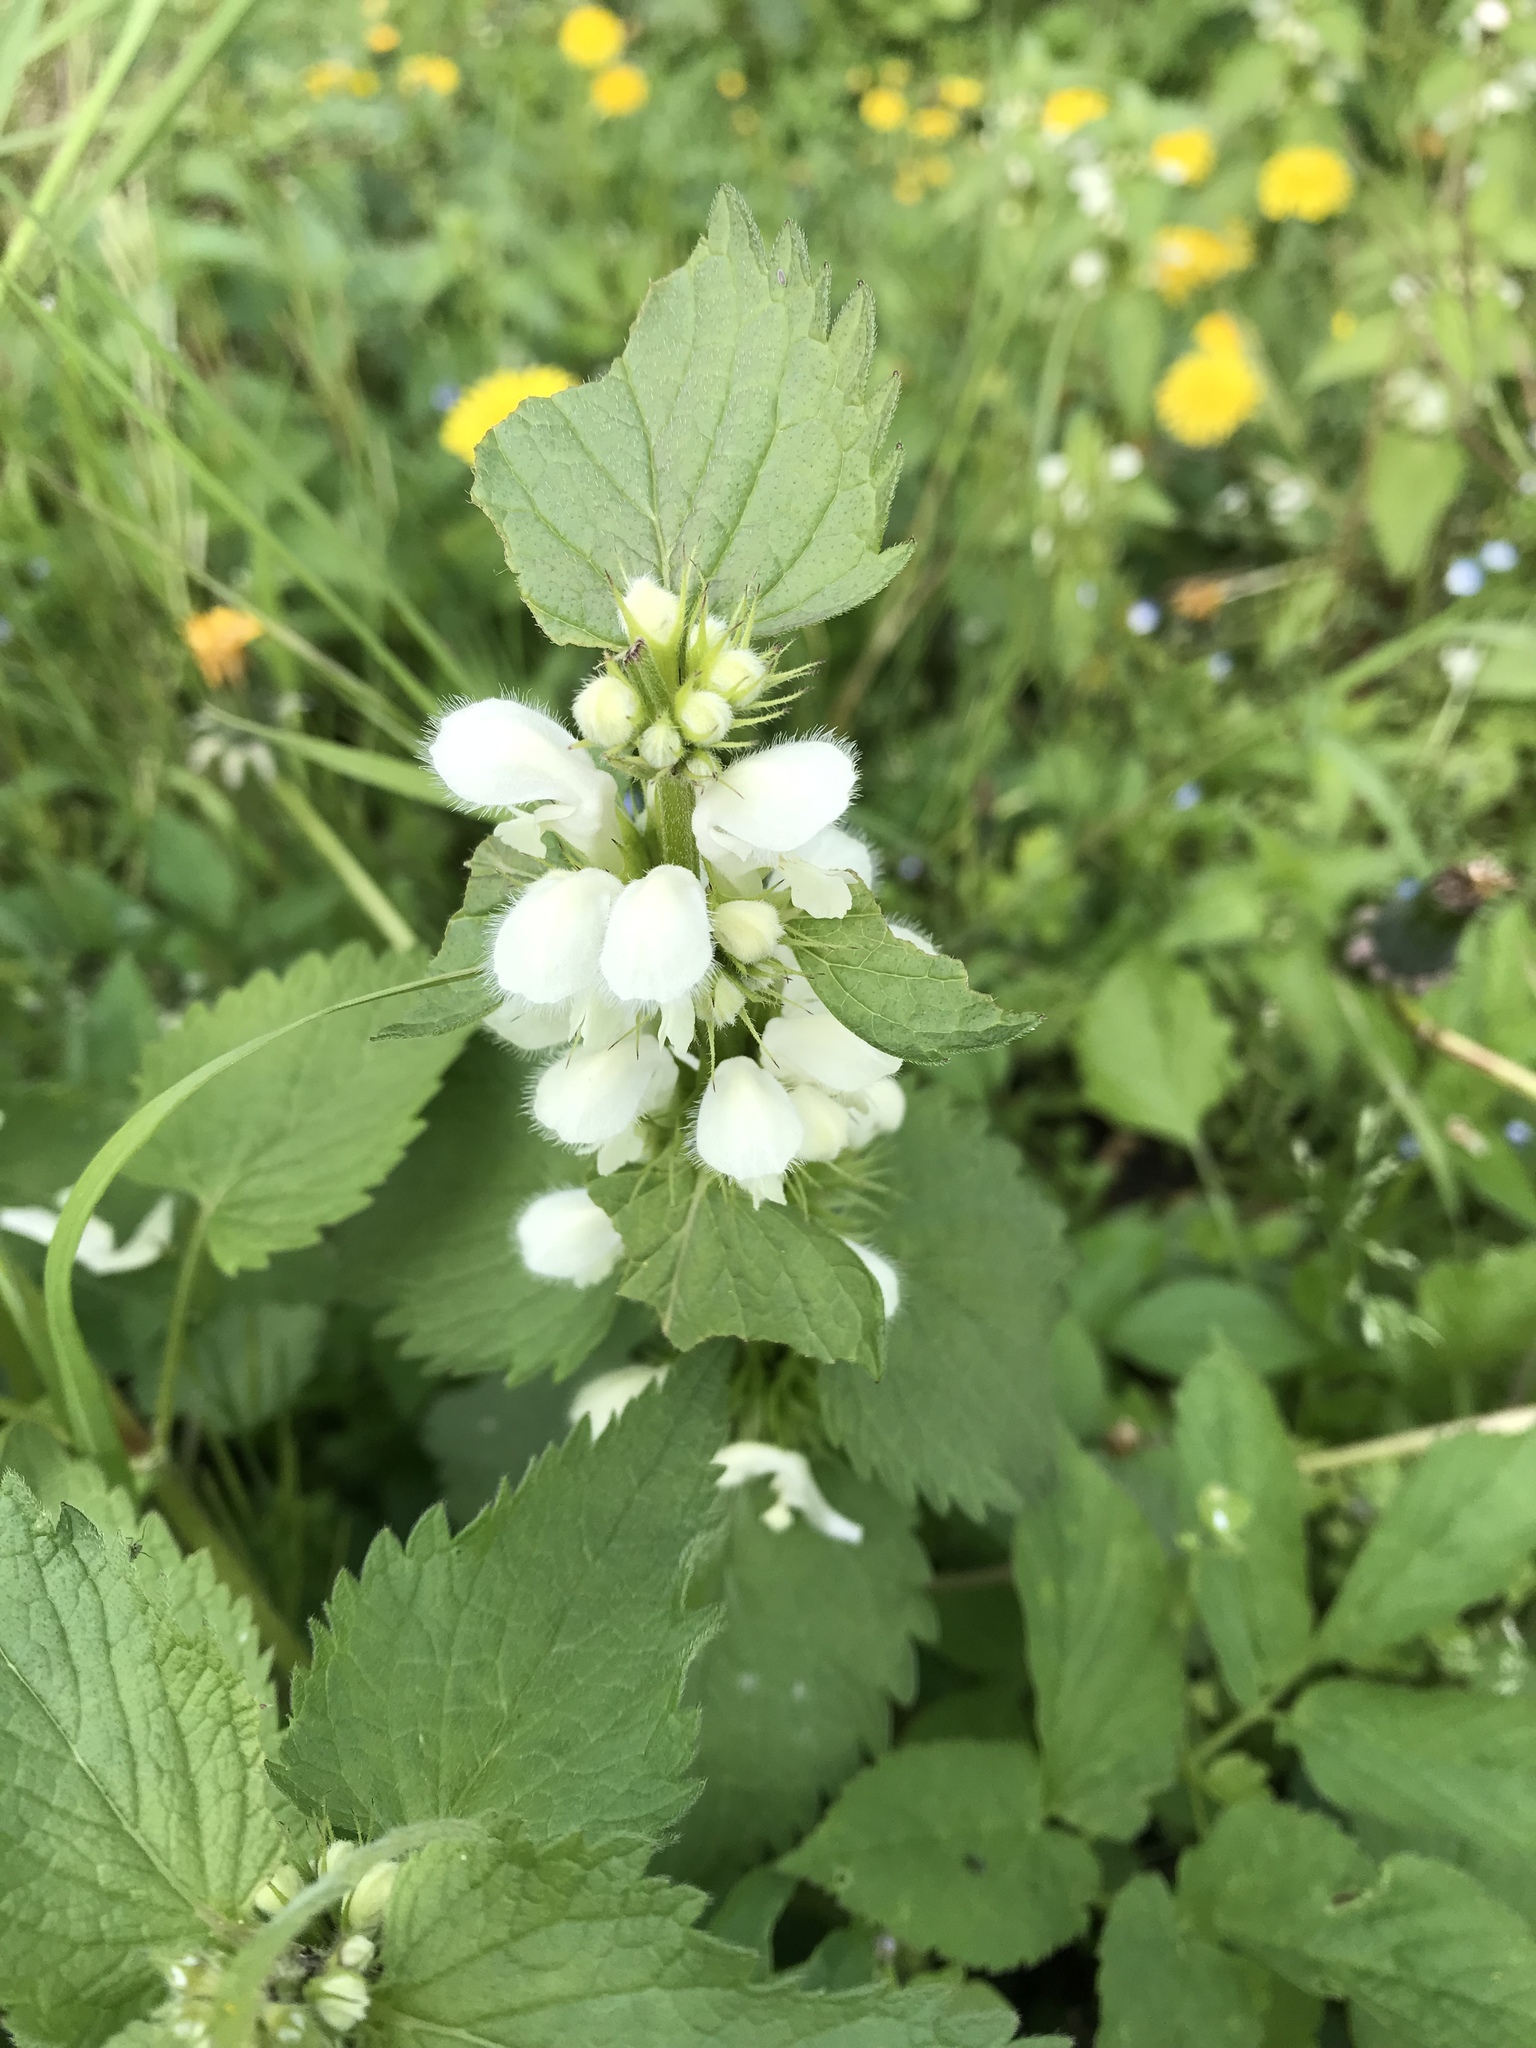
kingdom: Plantae
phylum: Tracheophyta
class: Magnoliopsida
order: Lamiales
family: Lamiaceae
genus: Lamium
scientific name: Lamium album
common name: White dead-nettle
